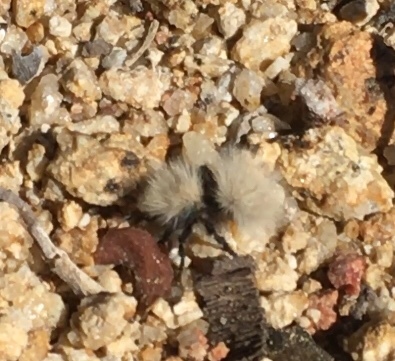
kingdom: Animalia
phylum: Arthropoda
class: Insecta
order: Hymenoptera
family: Mutillidae
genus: Dasymutilla
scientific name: Dasymutilla
